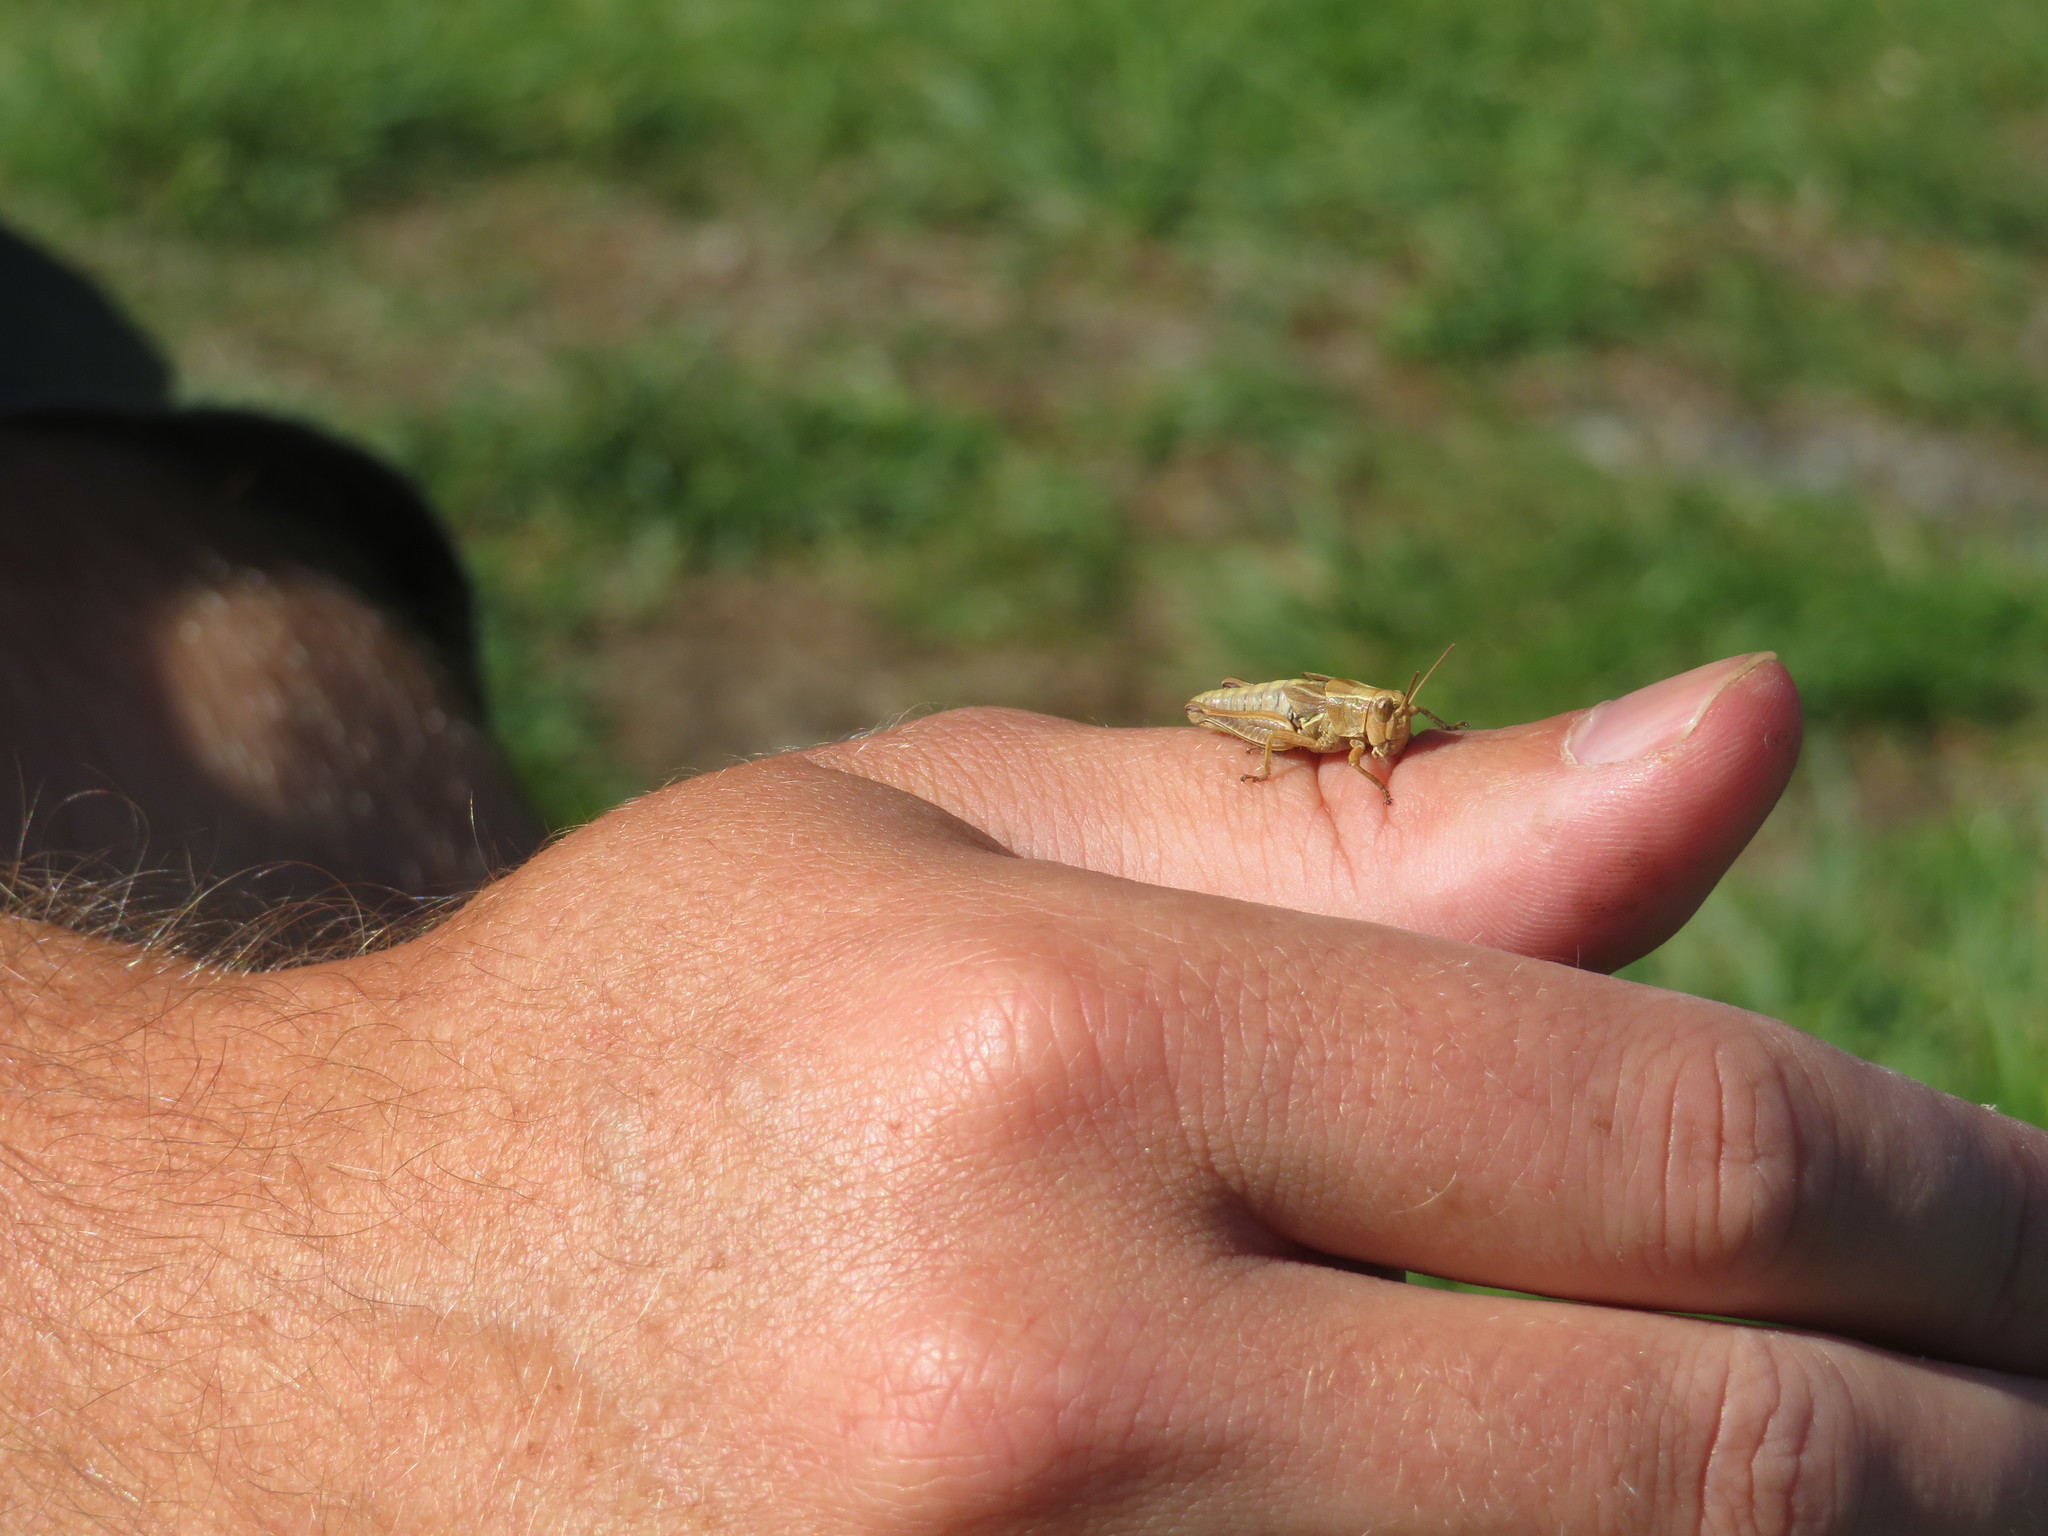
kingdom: Animalia
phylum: Arthropoda
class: Insecta
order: Orthoptera
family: Acrididae
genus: Phaulacridium
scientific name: Phaulacridium marginale
